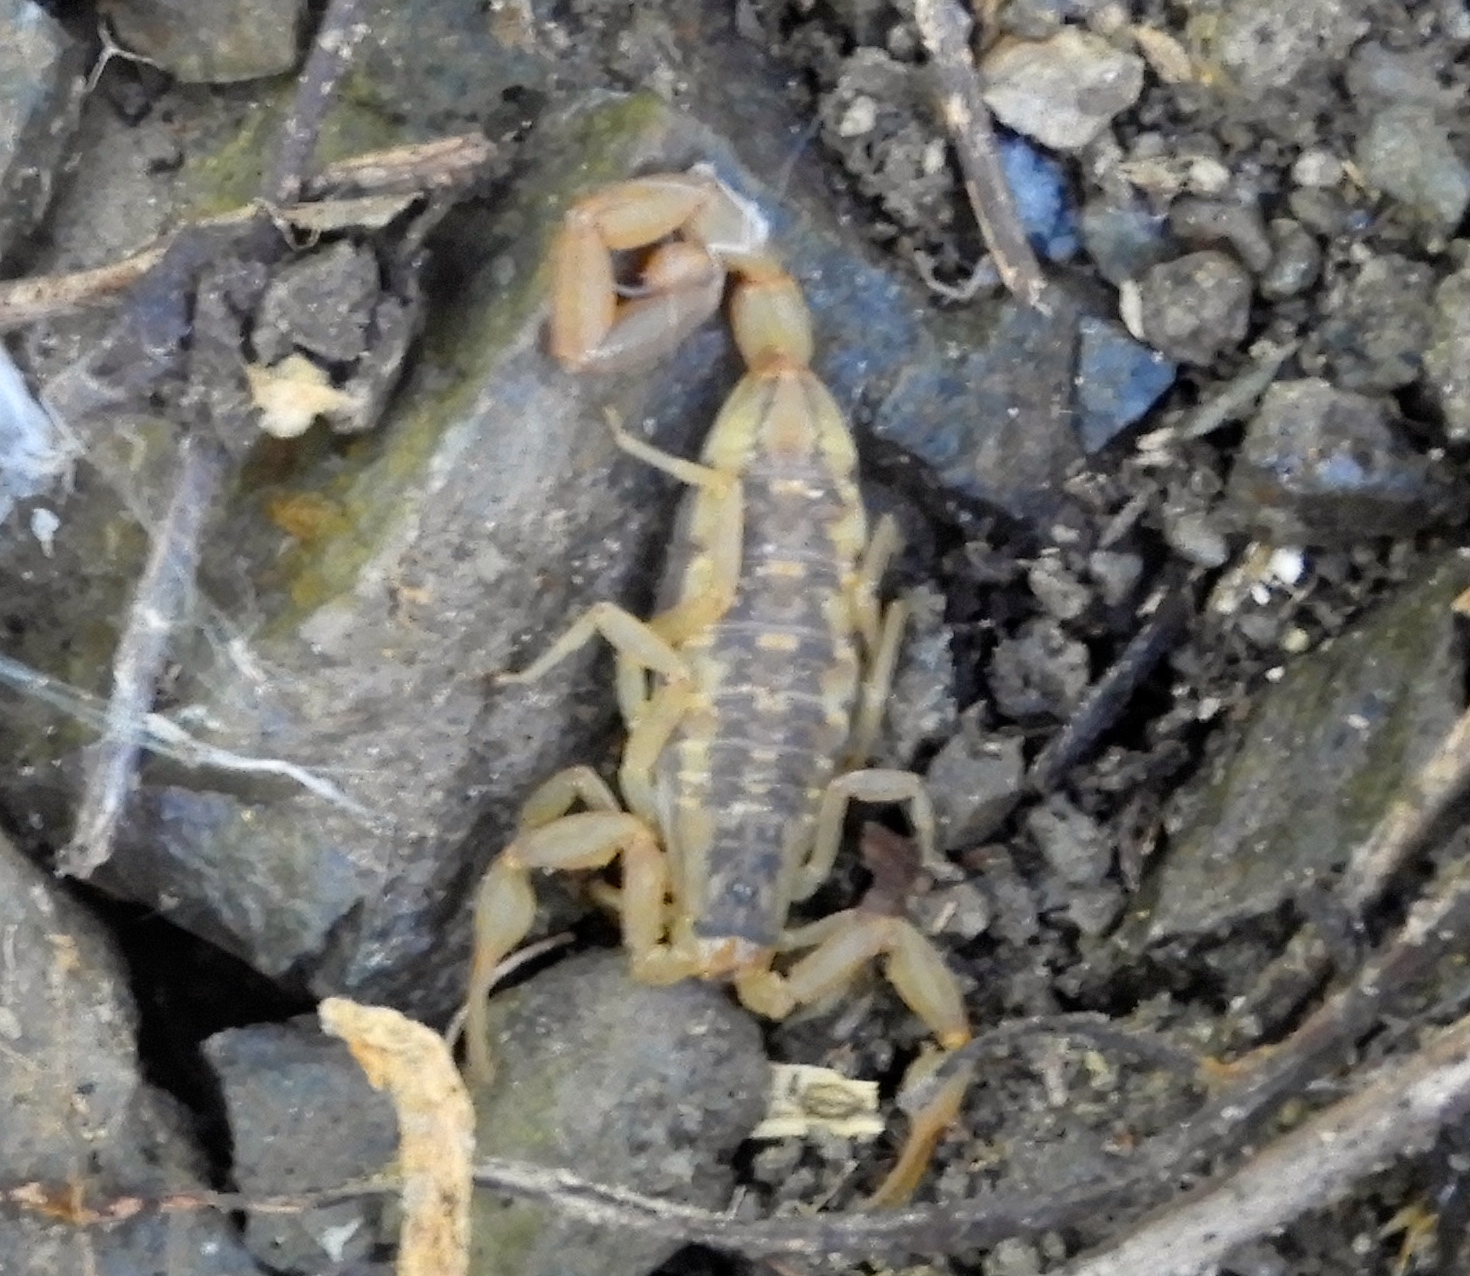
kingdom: Animalia
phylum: Arthropoda
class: Arachnida
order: Scorpiones
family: Buthidae
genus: Centruroides
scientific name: Centruroides baldazoi
